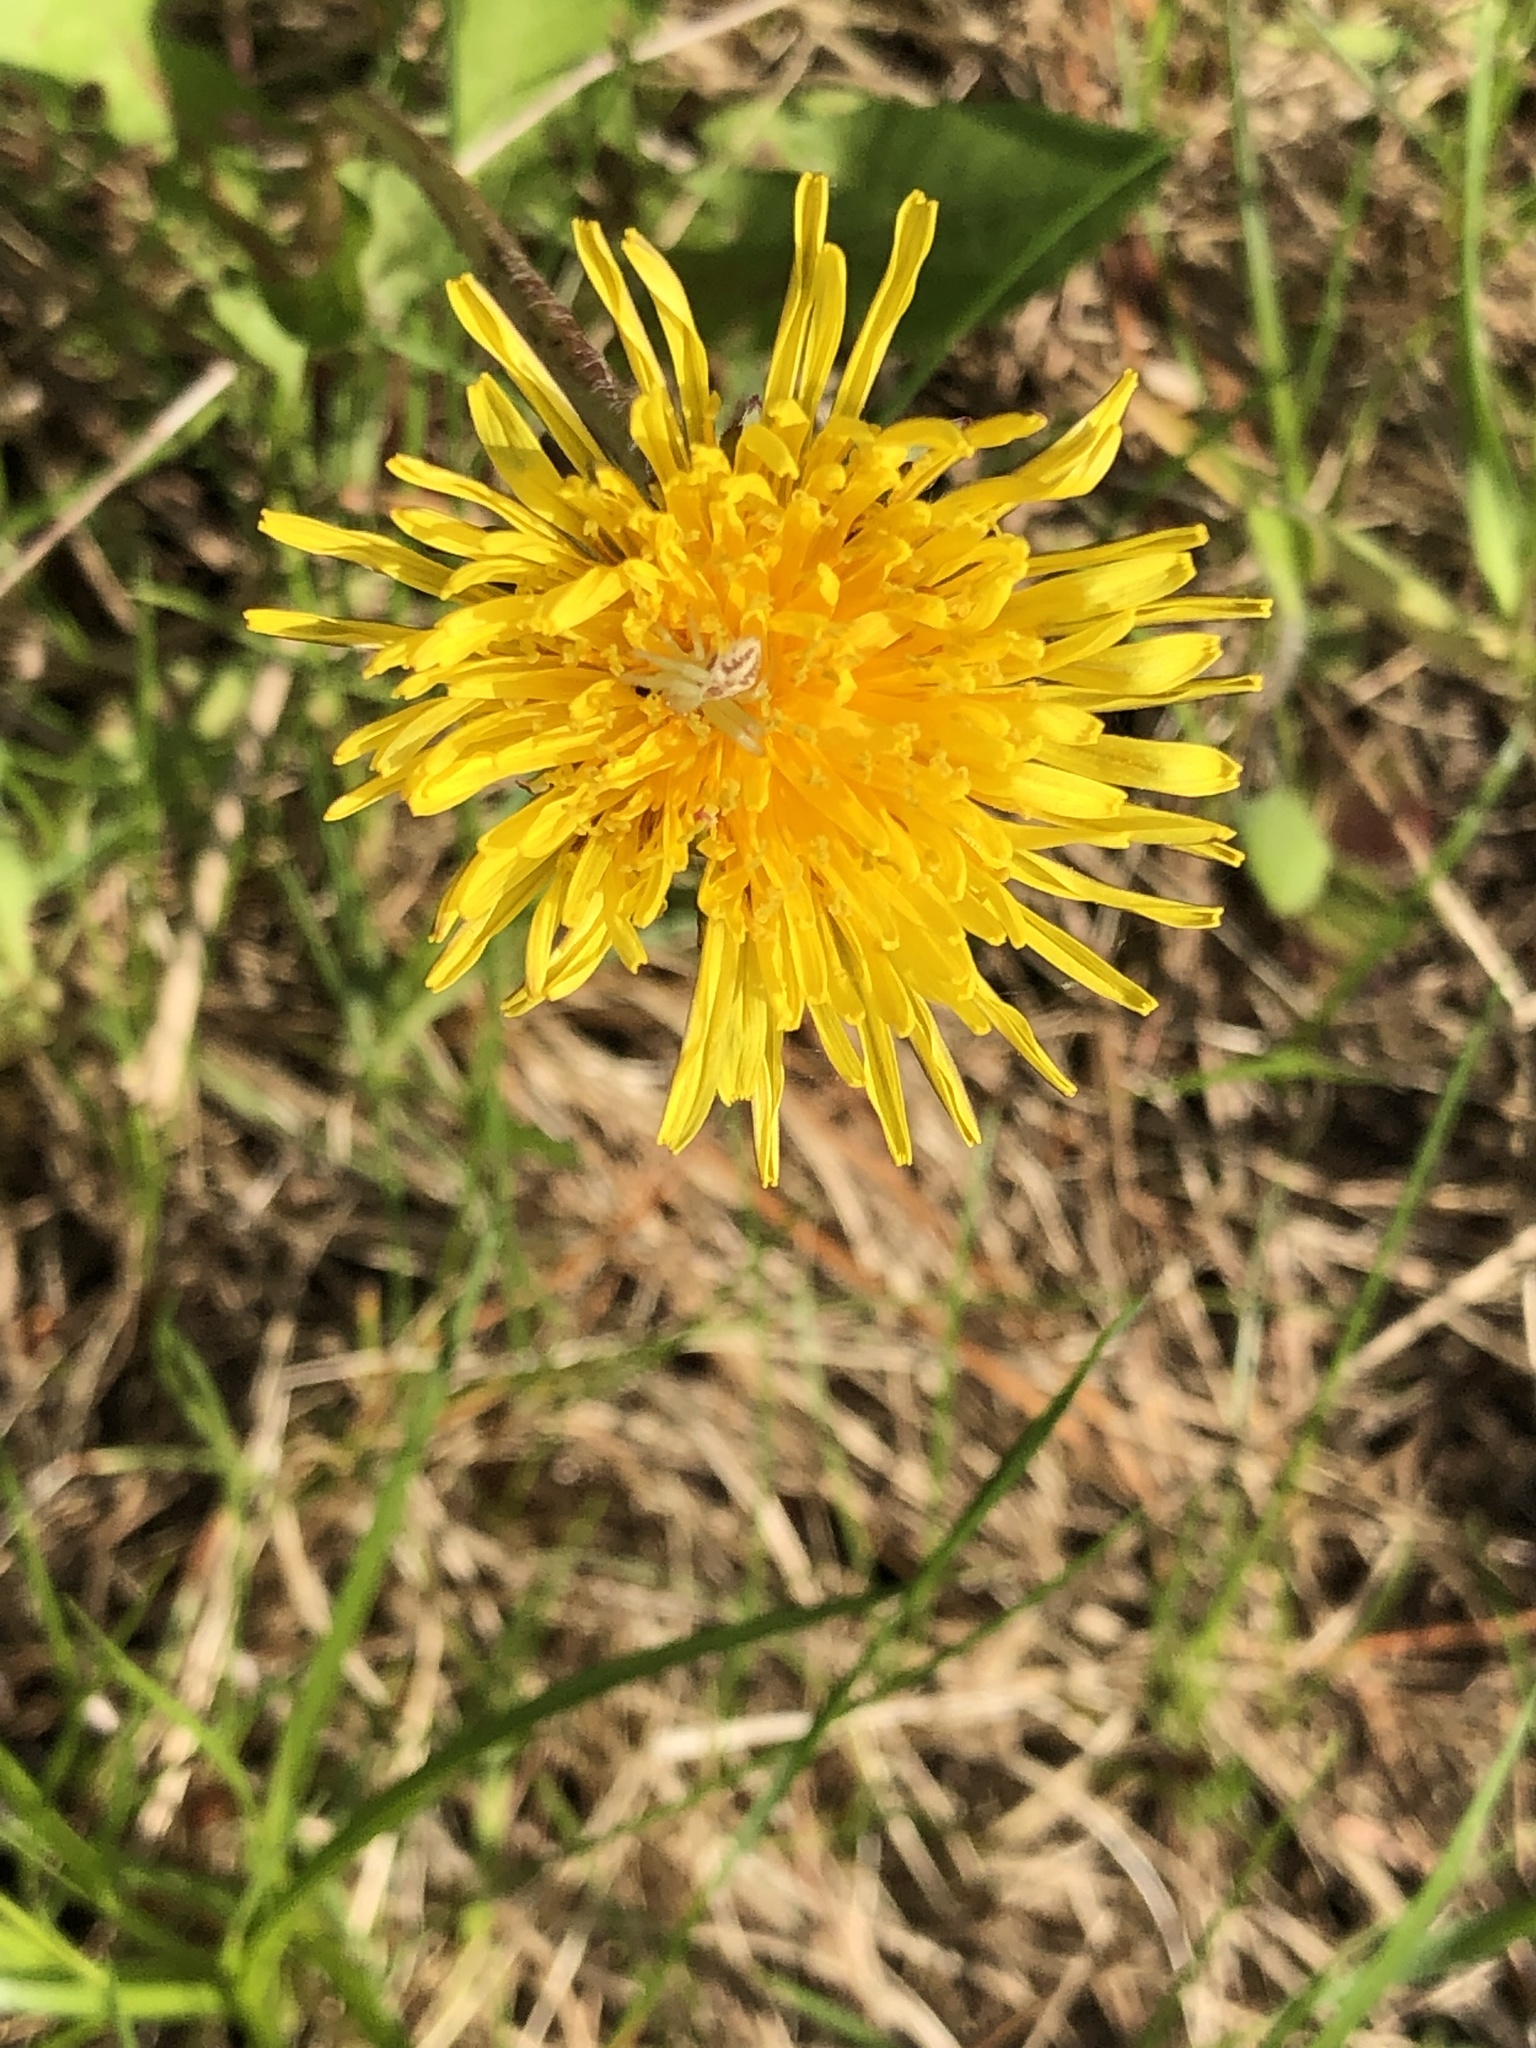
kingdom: Plantae
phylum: Tracheophyta
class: Magnoliopsida
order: Asterales
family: Asteraceae
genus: Taraxacum
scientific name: Taraxacum officinale
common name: Common dandelion
